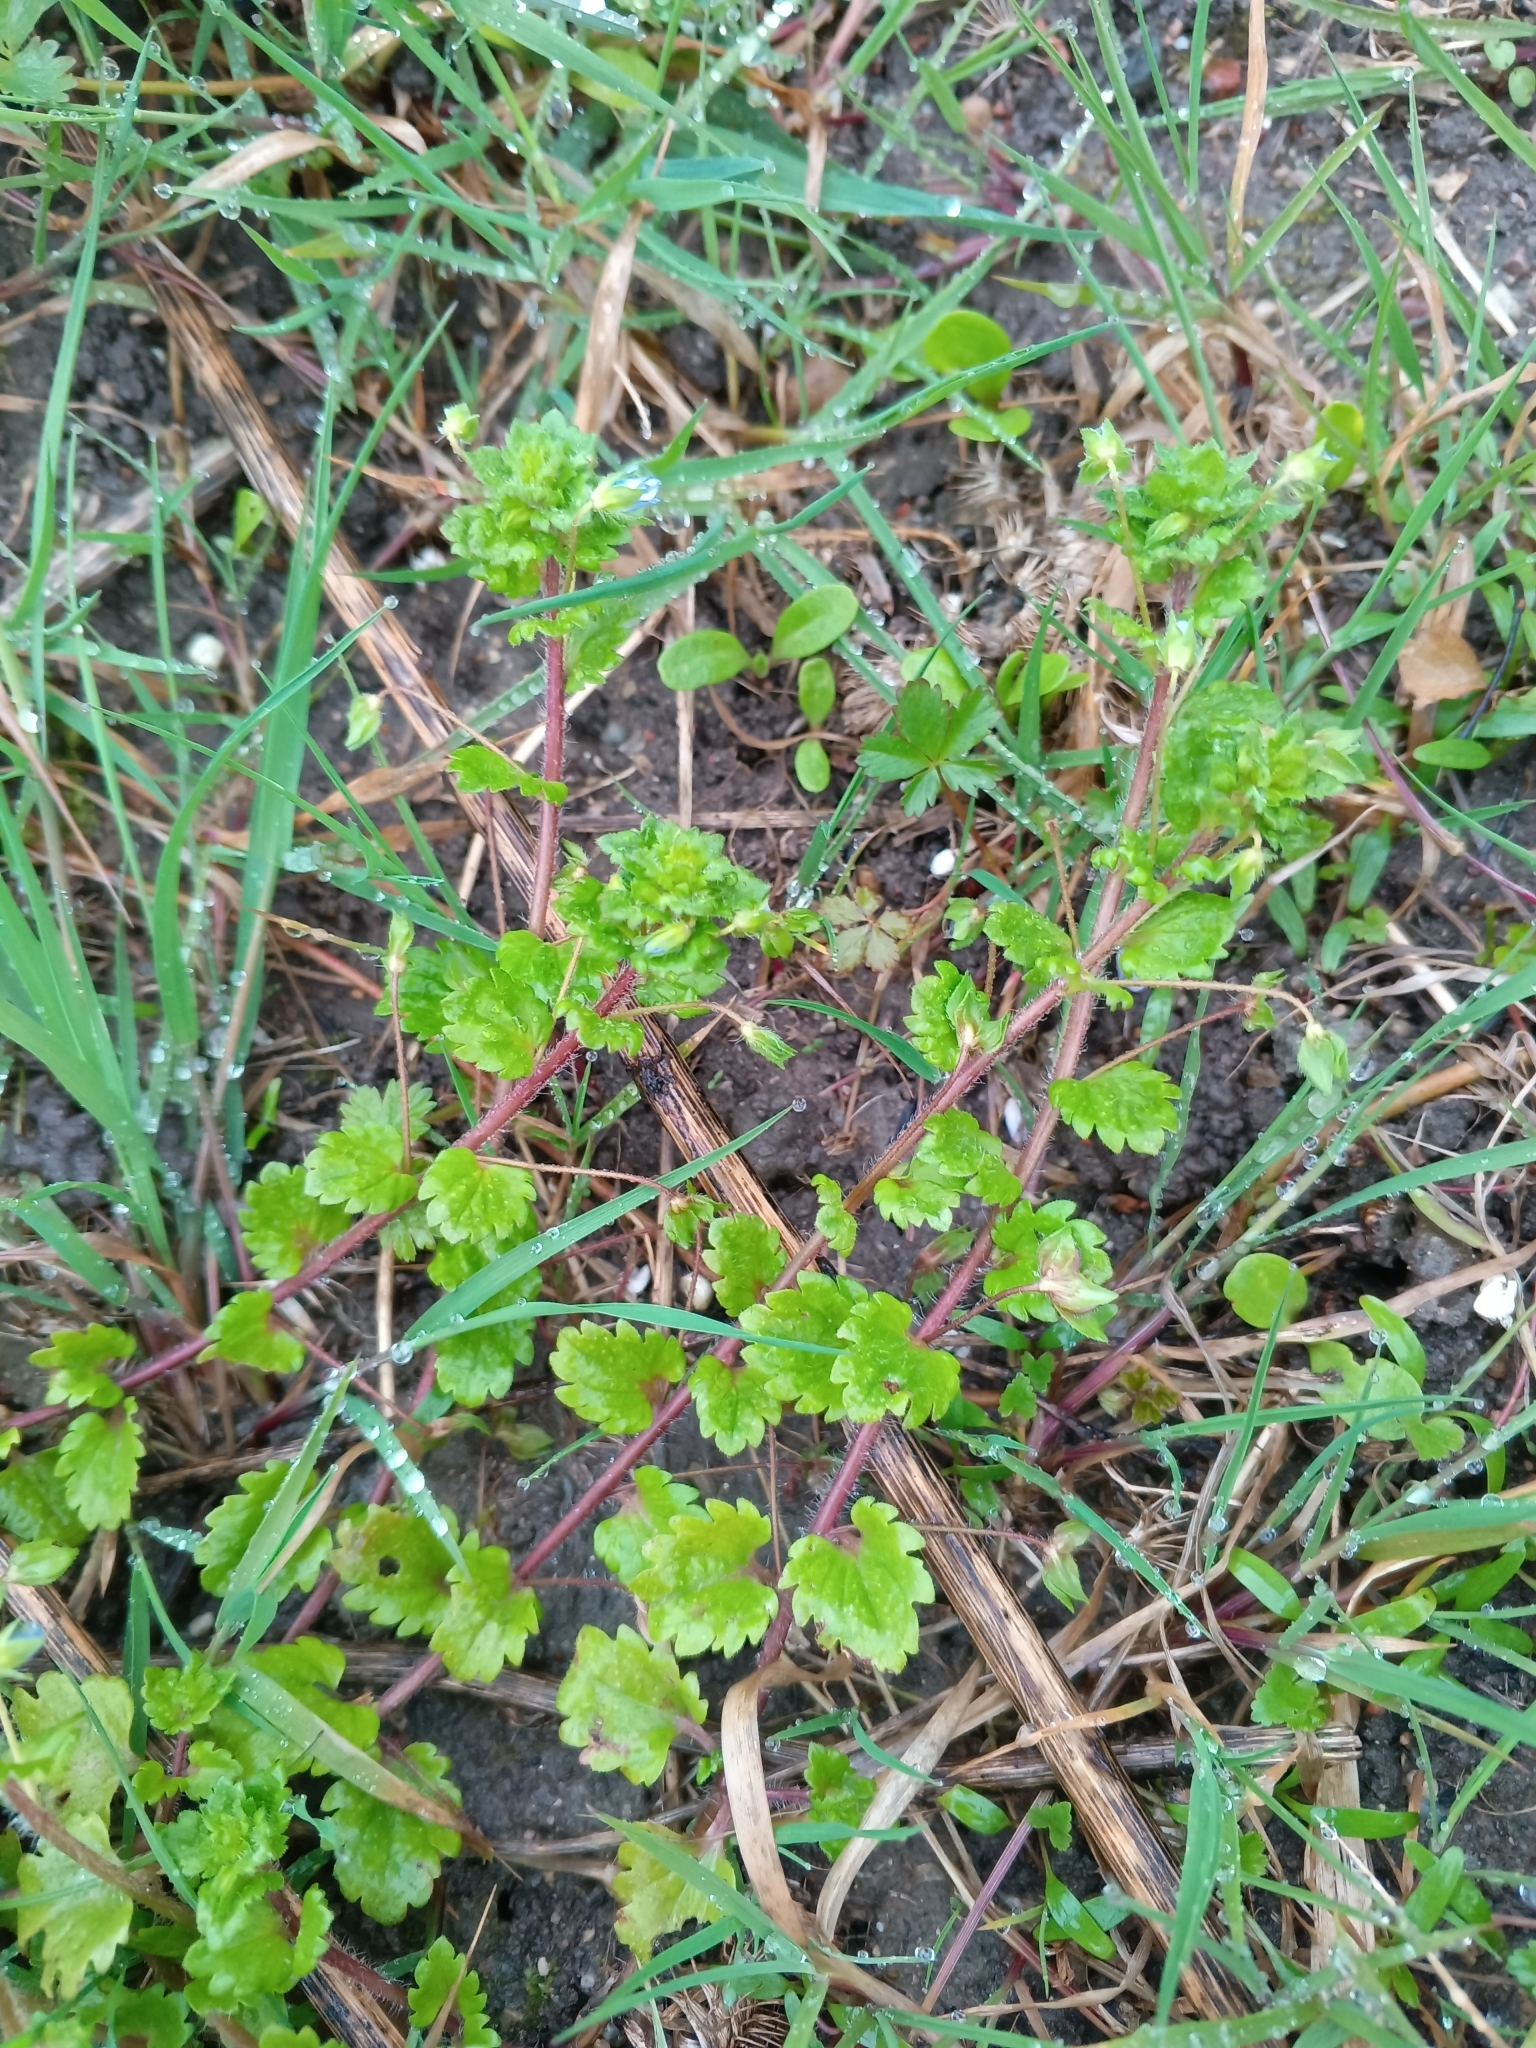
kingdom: Plantae
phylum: Tracheophyta
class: Magnoliopsida
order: Lamiales
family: Plantaginaceae
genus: Veronica
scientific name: Veronica persica
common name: Common field-speedwell
